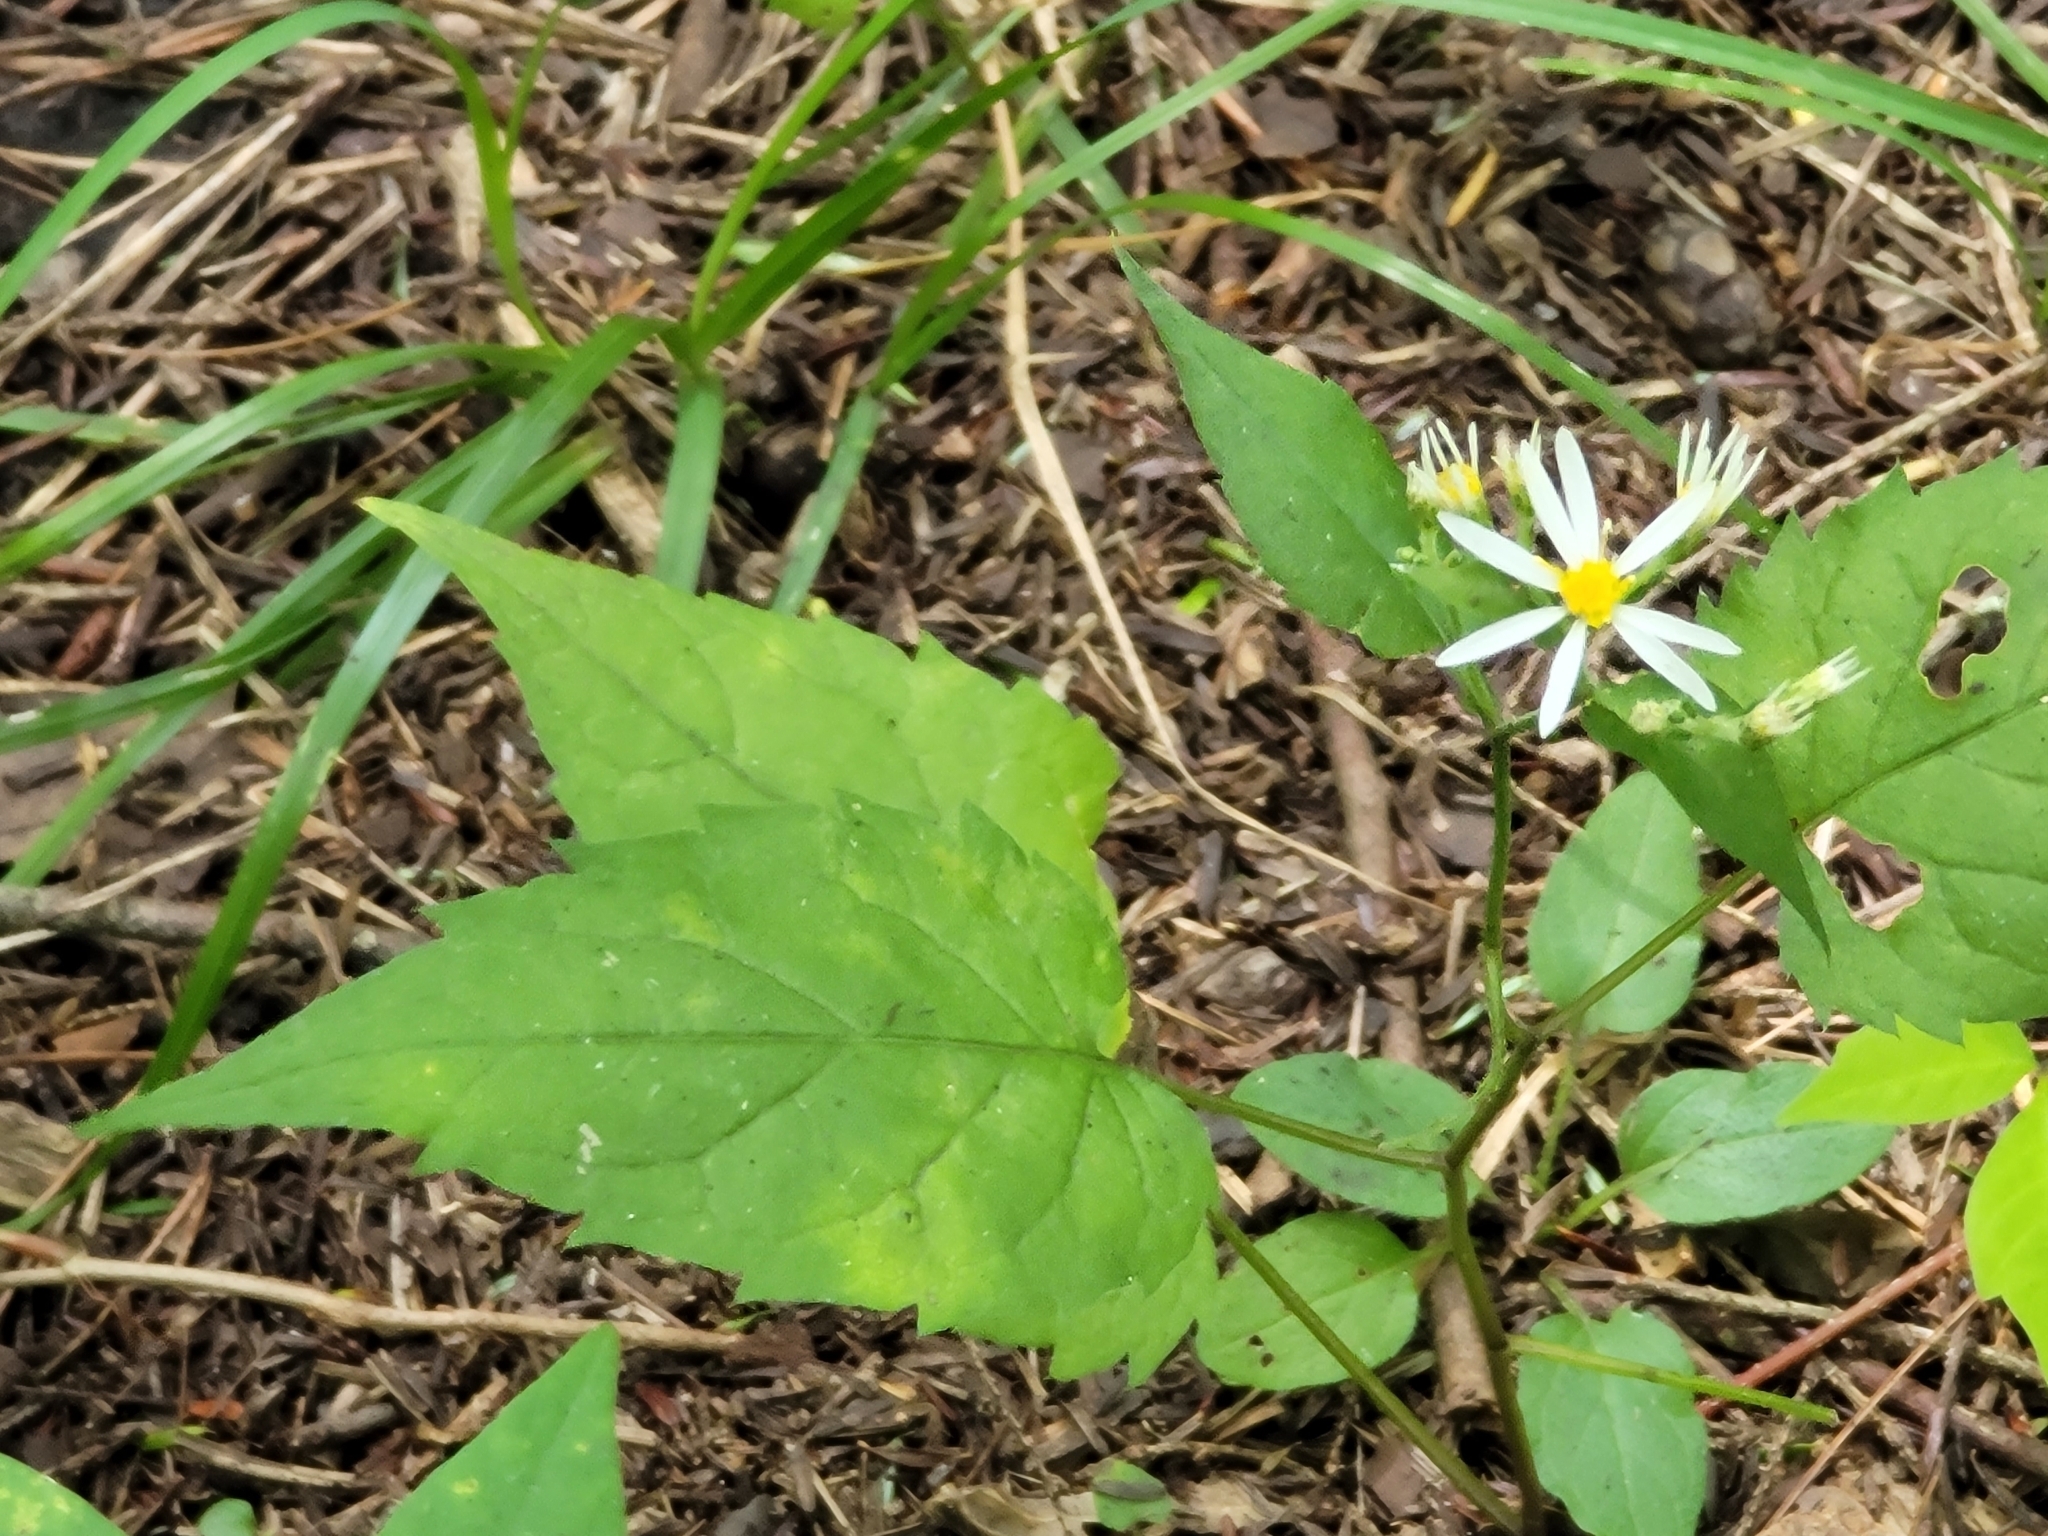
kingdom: Plantae
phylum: Tracheophyta
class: Magnoliopsida
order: Asterales
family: Asteraceae
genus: Eurybia
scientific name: Eurybia divaricata
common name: White wood aster
